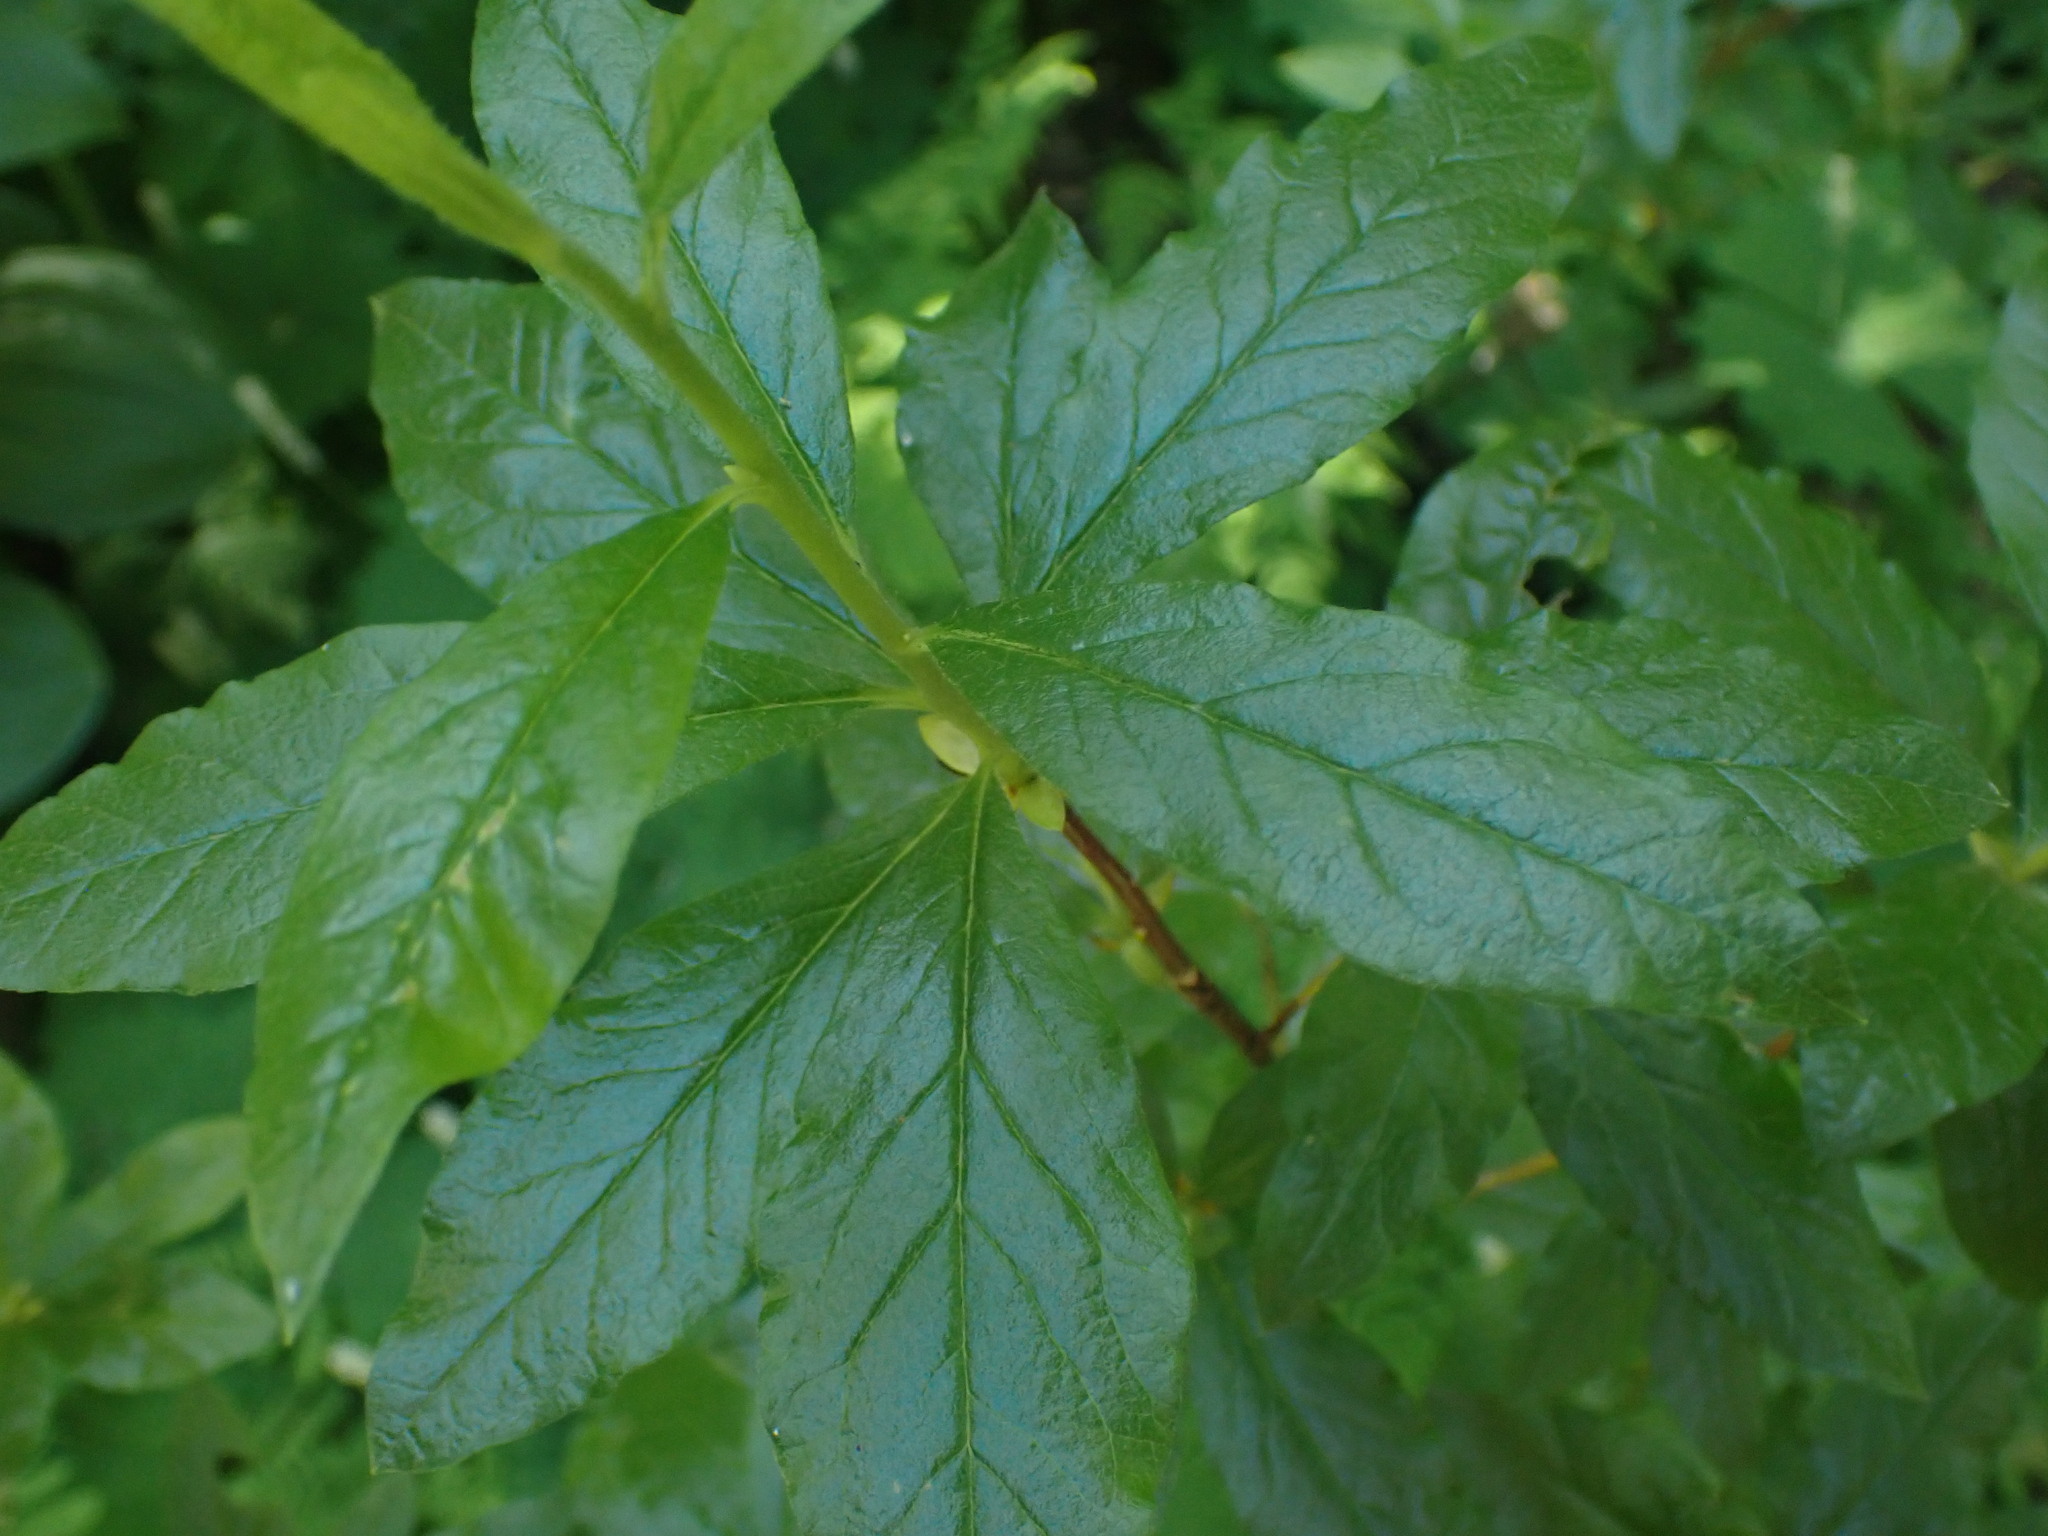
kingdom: Plantae
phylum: Tracheophyta
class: Magnoliopsida
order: Ericales
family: Ericaceae
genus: Rhododendron
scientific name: Rhododendron albiflorum
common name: White rhododendron
